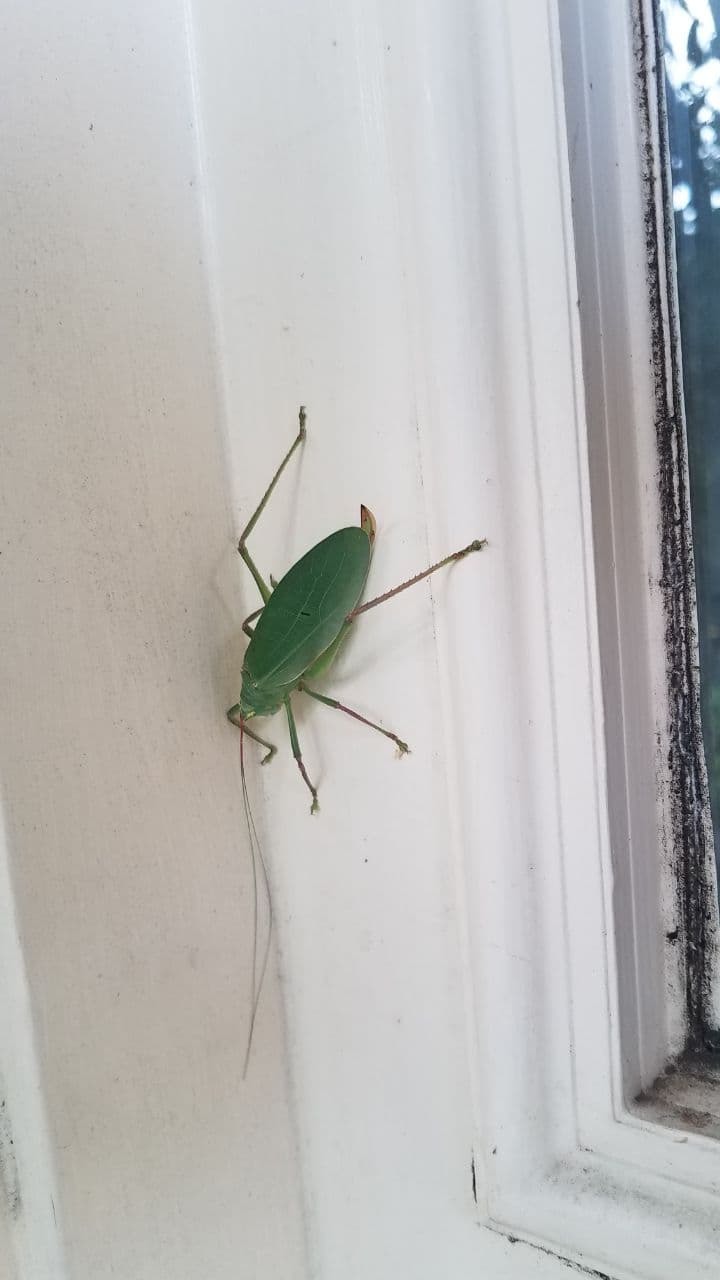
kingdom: Animalia
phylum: Arthropoda
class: Insecta
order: Orthoptera
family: Tettigoniidae
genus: Pterophylla
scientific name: Pterophylla camellifolia
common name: Common true katydid
